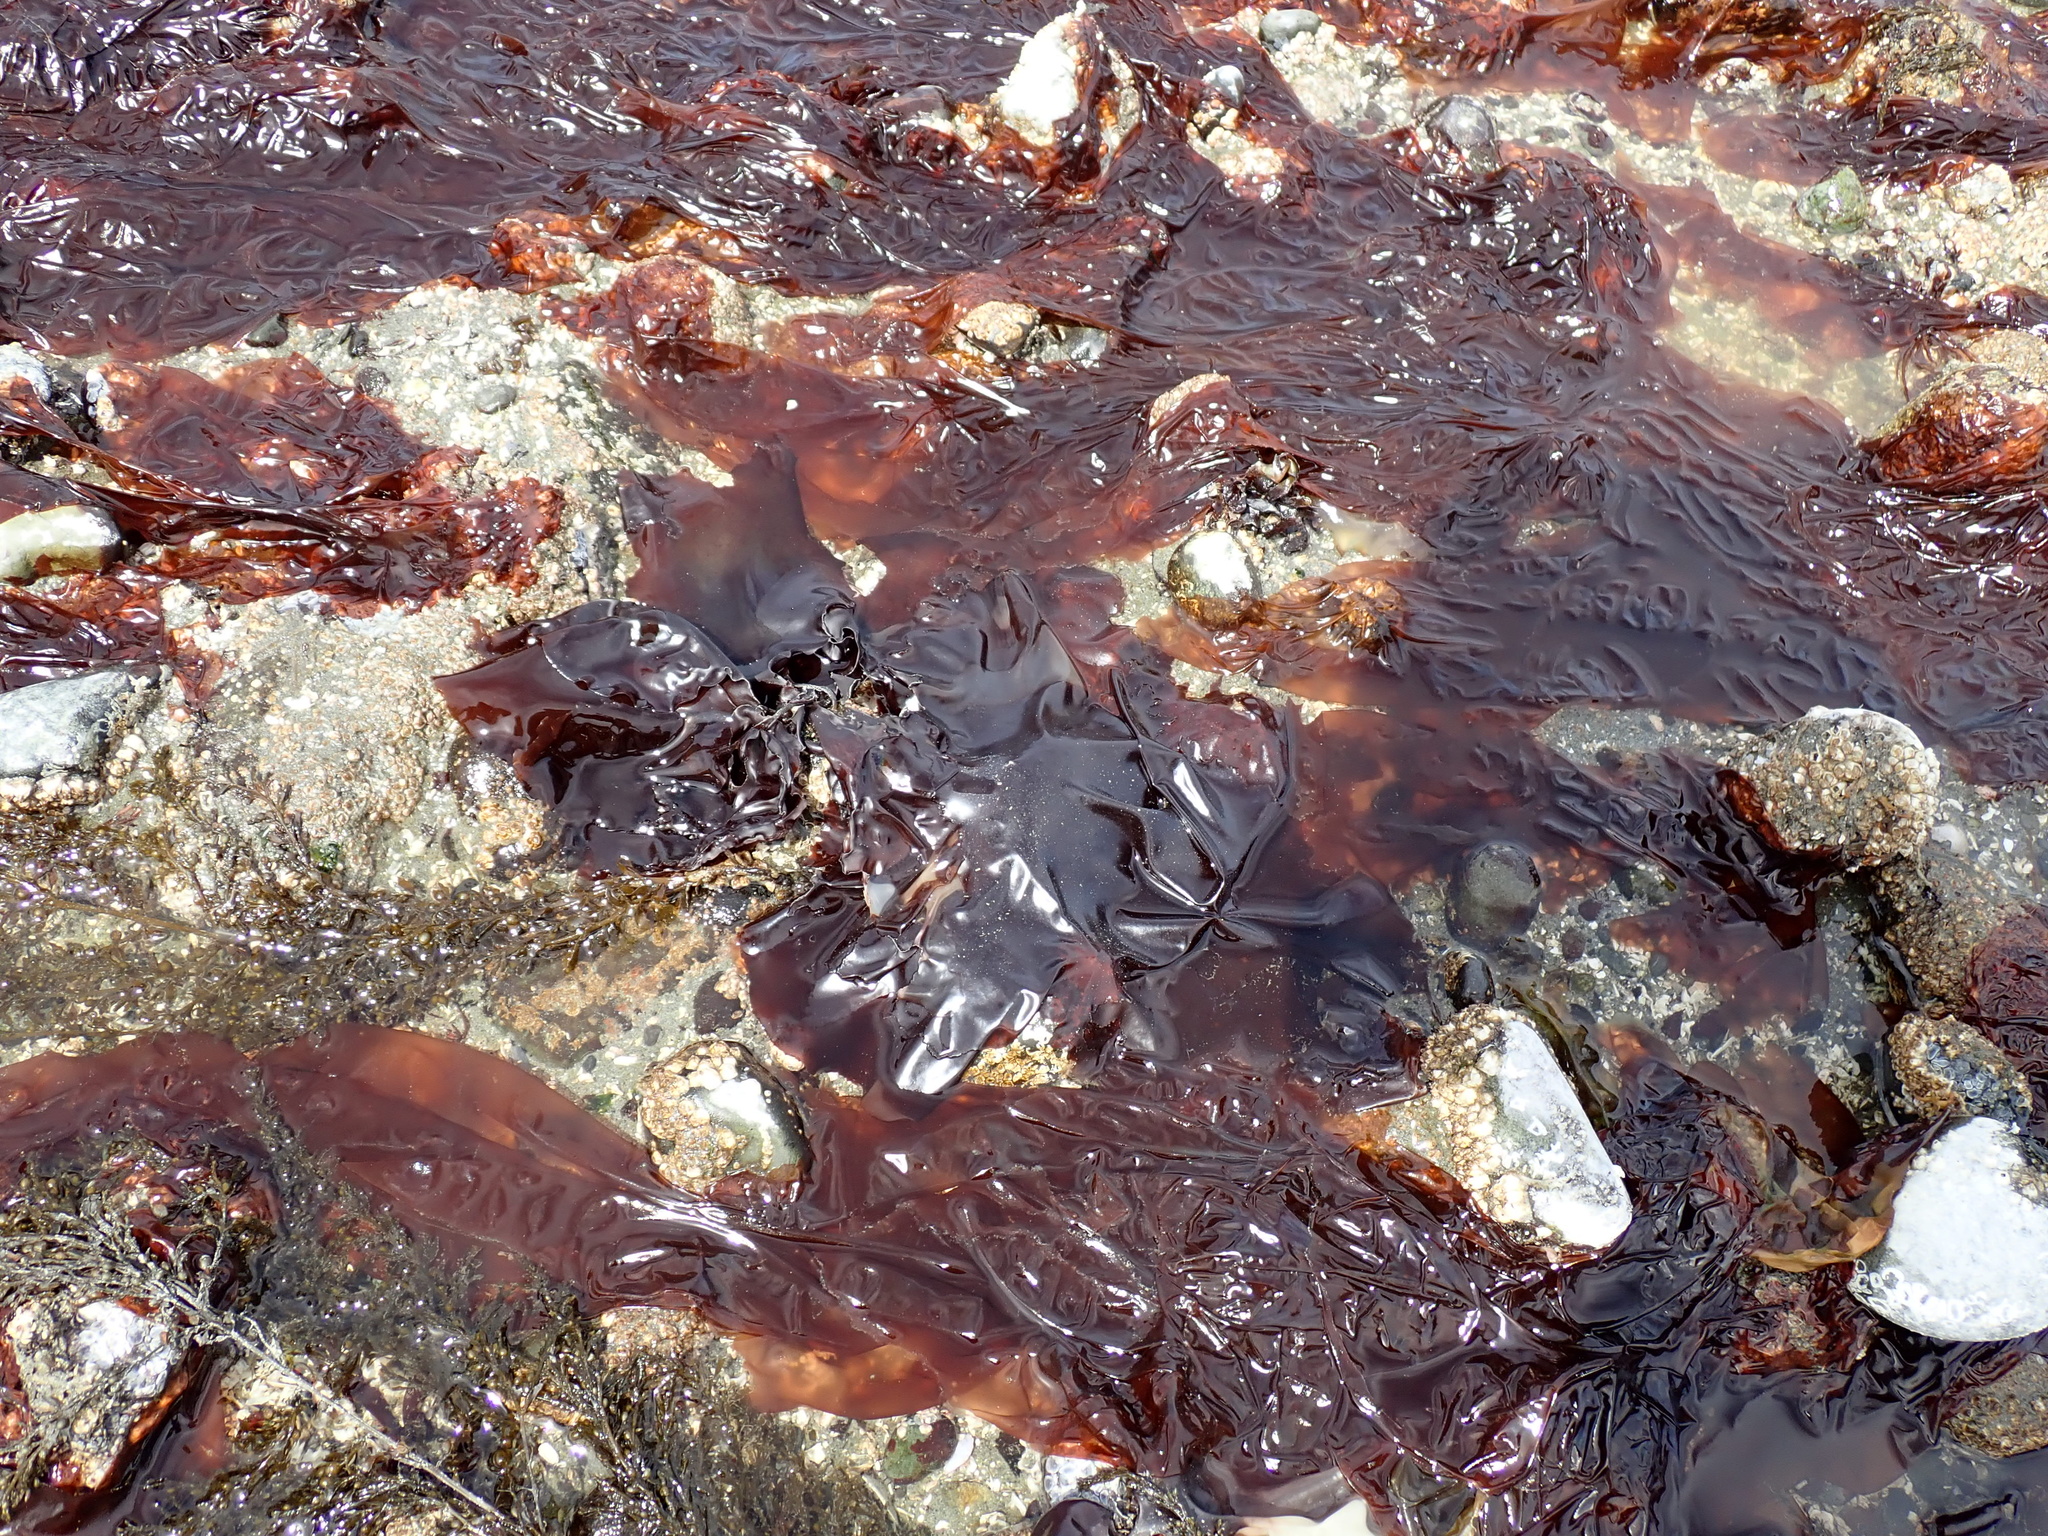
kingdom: Plantae
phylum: Rhodophyta
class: Florideophyceae
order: Gigartinales
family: Gigartinaceae
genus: Mazzaella
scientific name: Mazzaella splendens
